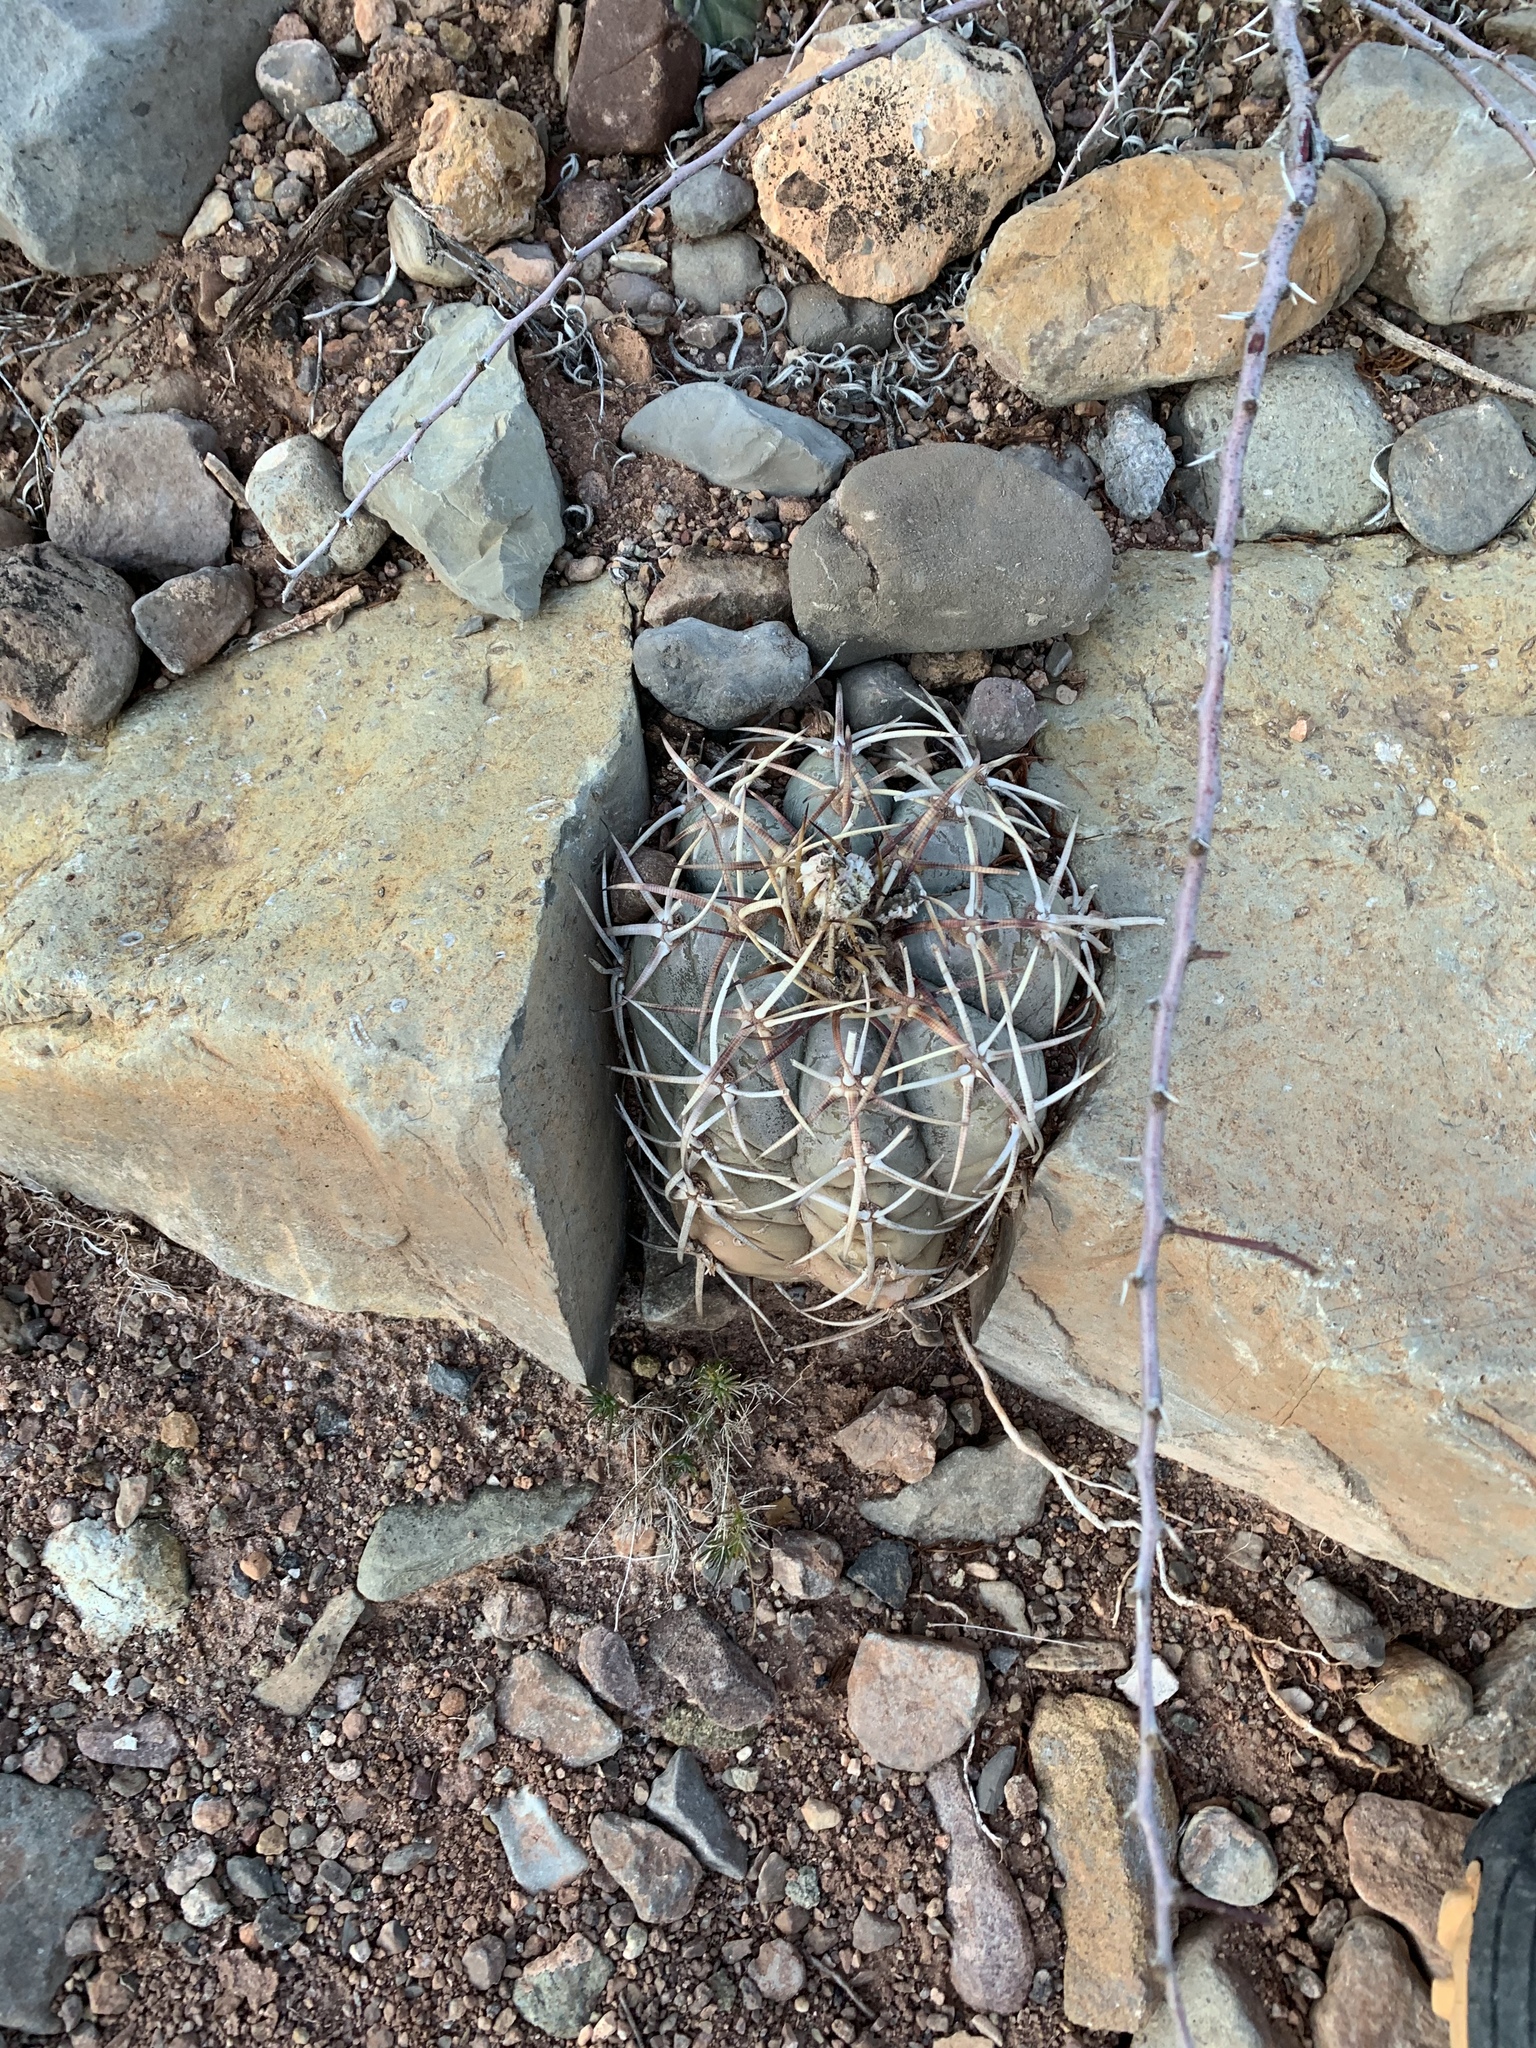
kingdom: Plantae
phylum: Tracheophyta
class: Magnoliopsida
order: Caryophyllales
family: Cactaceae
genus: Echinocactus
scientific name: Echinocactus horizonthalonius
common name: Devilshead
